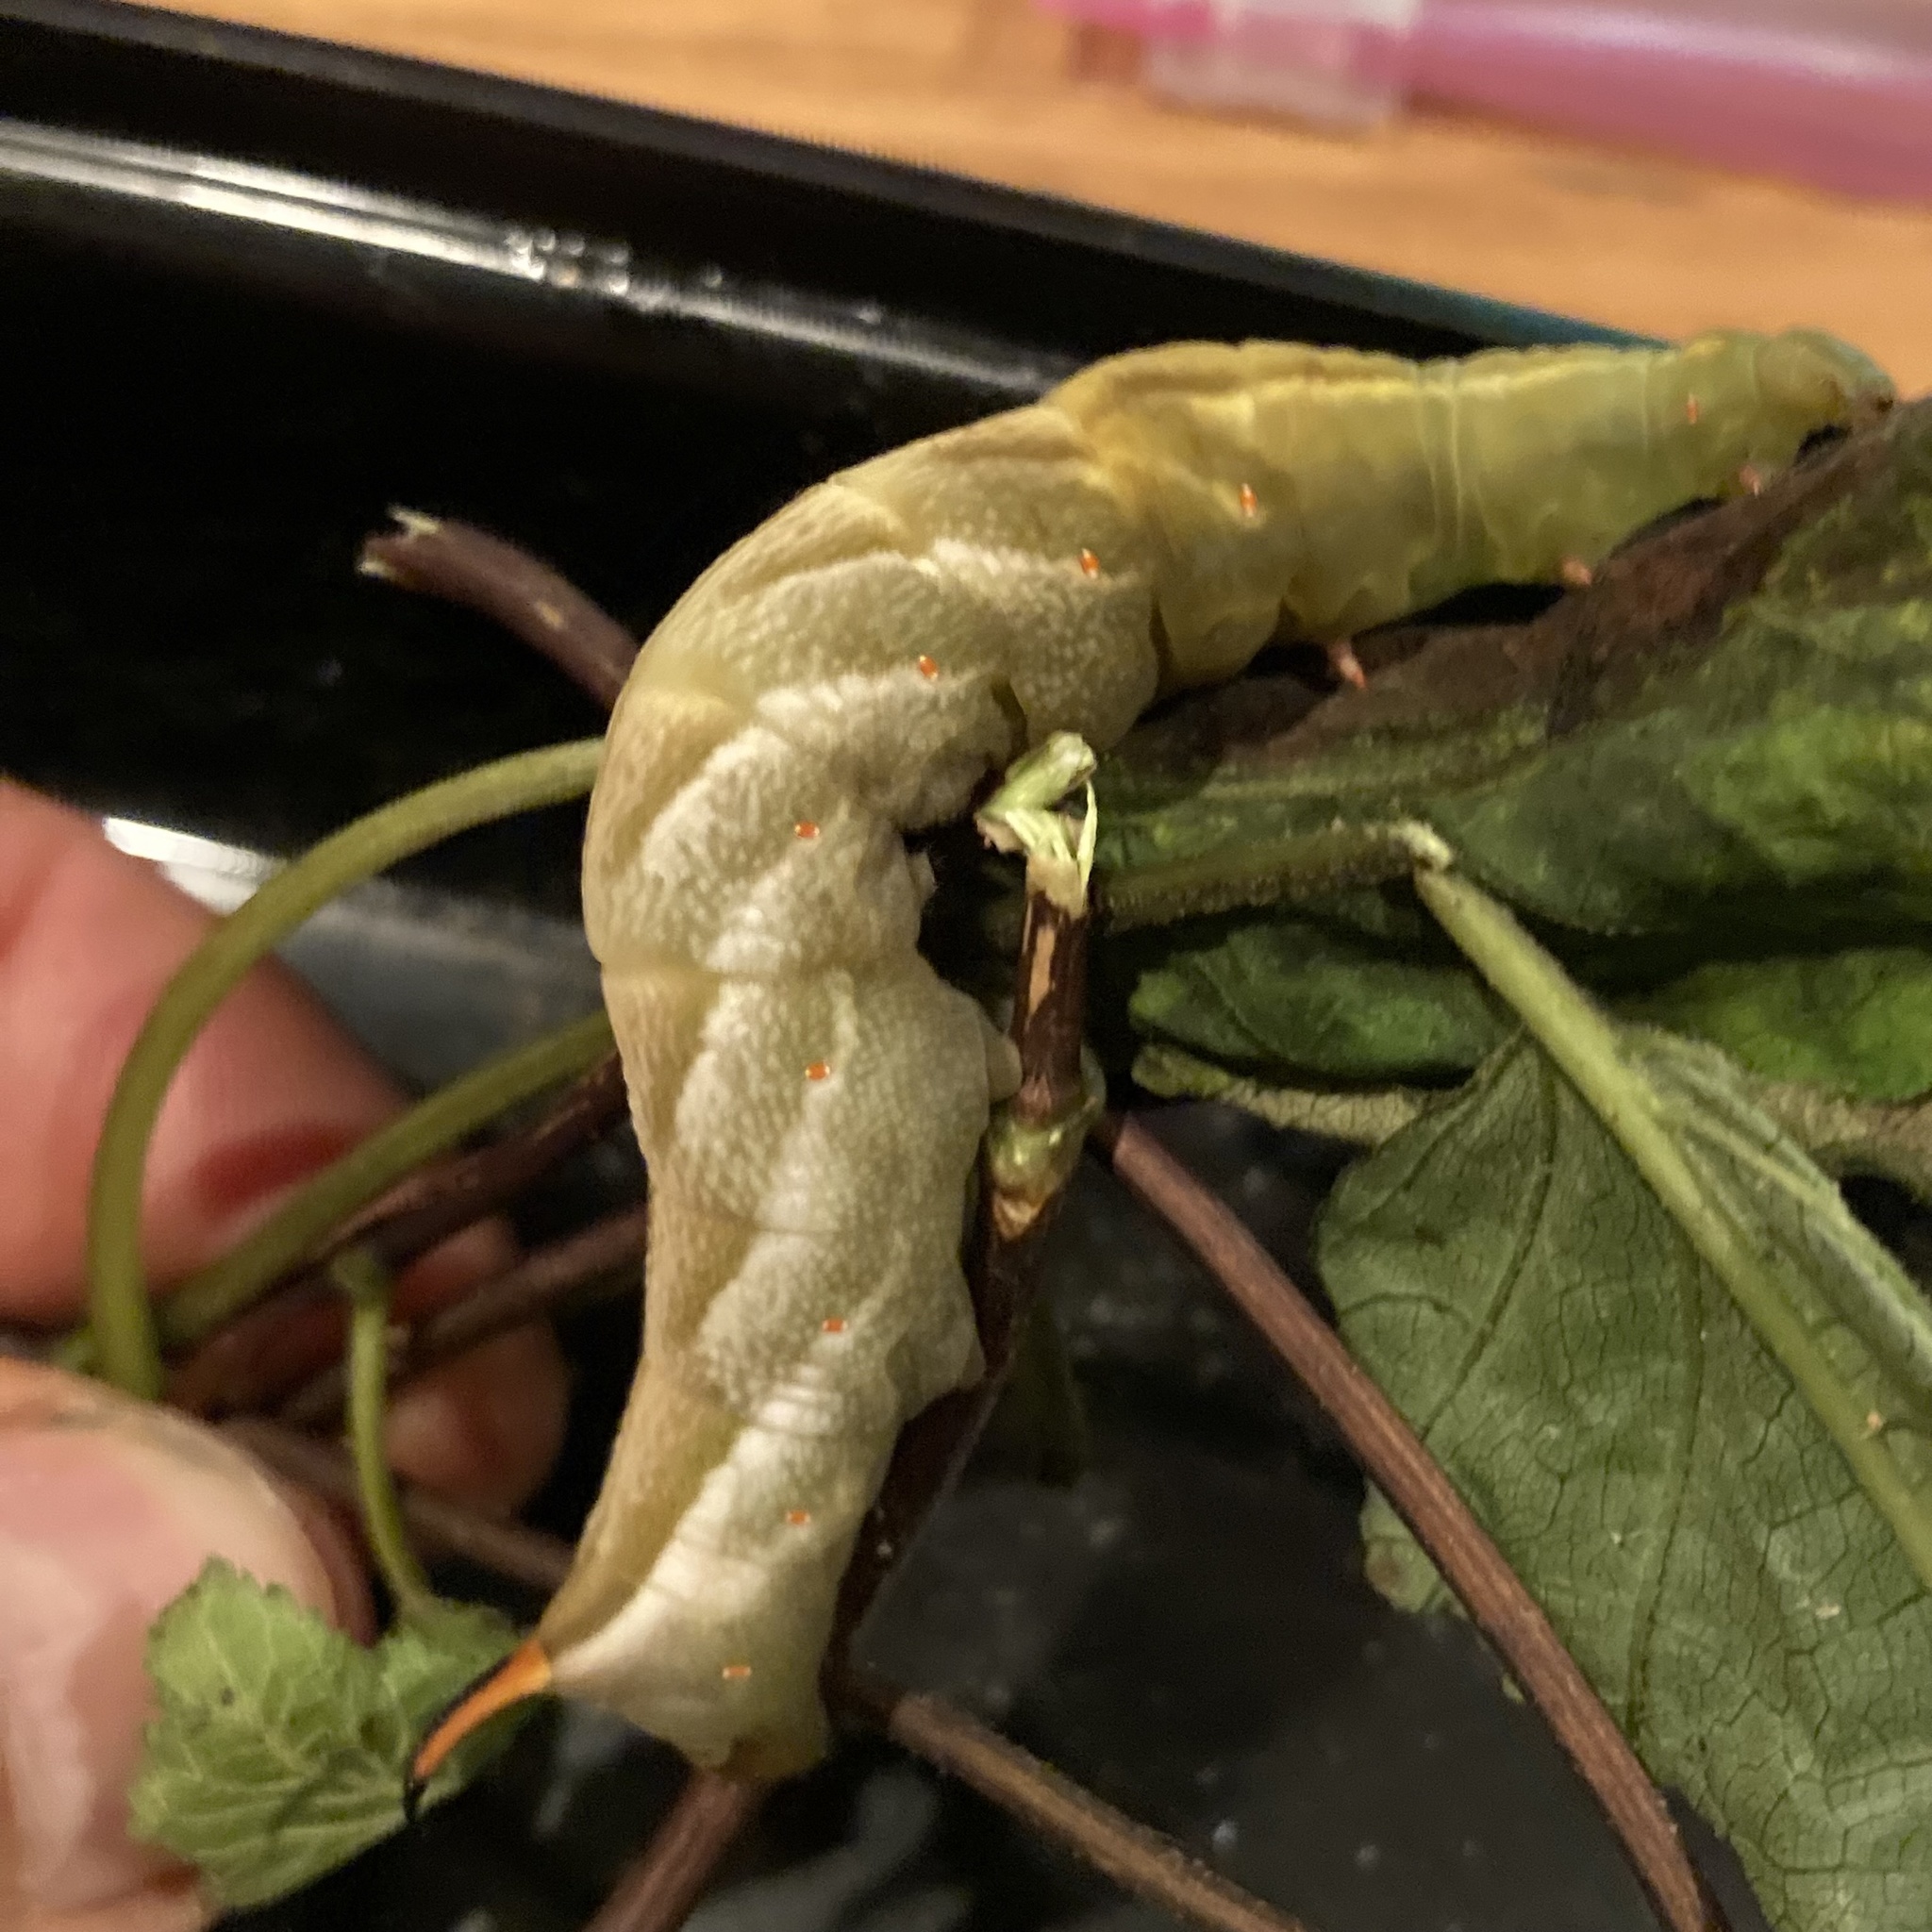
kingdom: Animalia
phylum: Arthropoda
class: Insecta
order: Lepidoptera
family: Sphingidae
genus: Darapsa
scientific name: Darapsa versicolor
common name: Hydrangea sphinx
